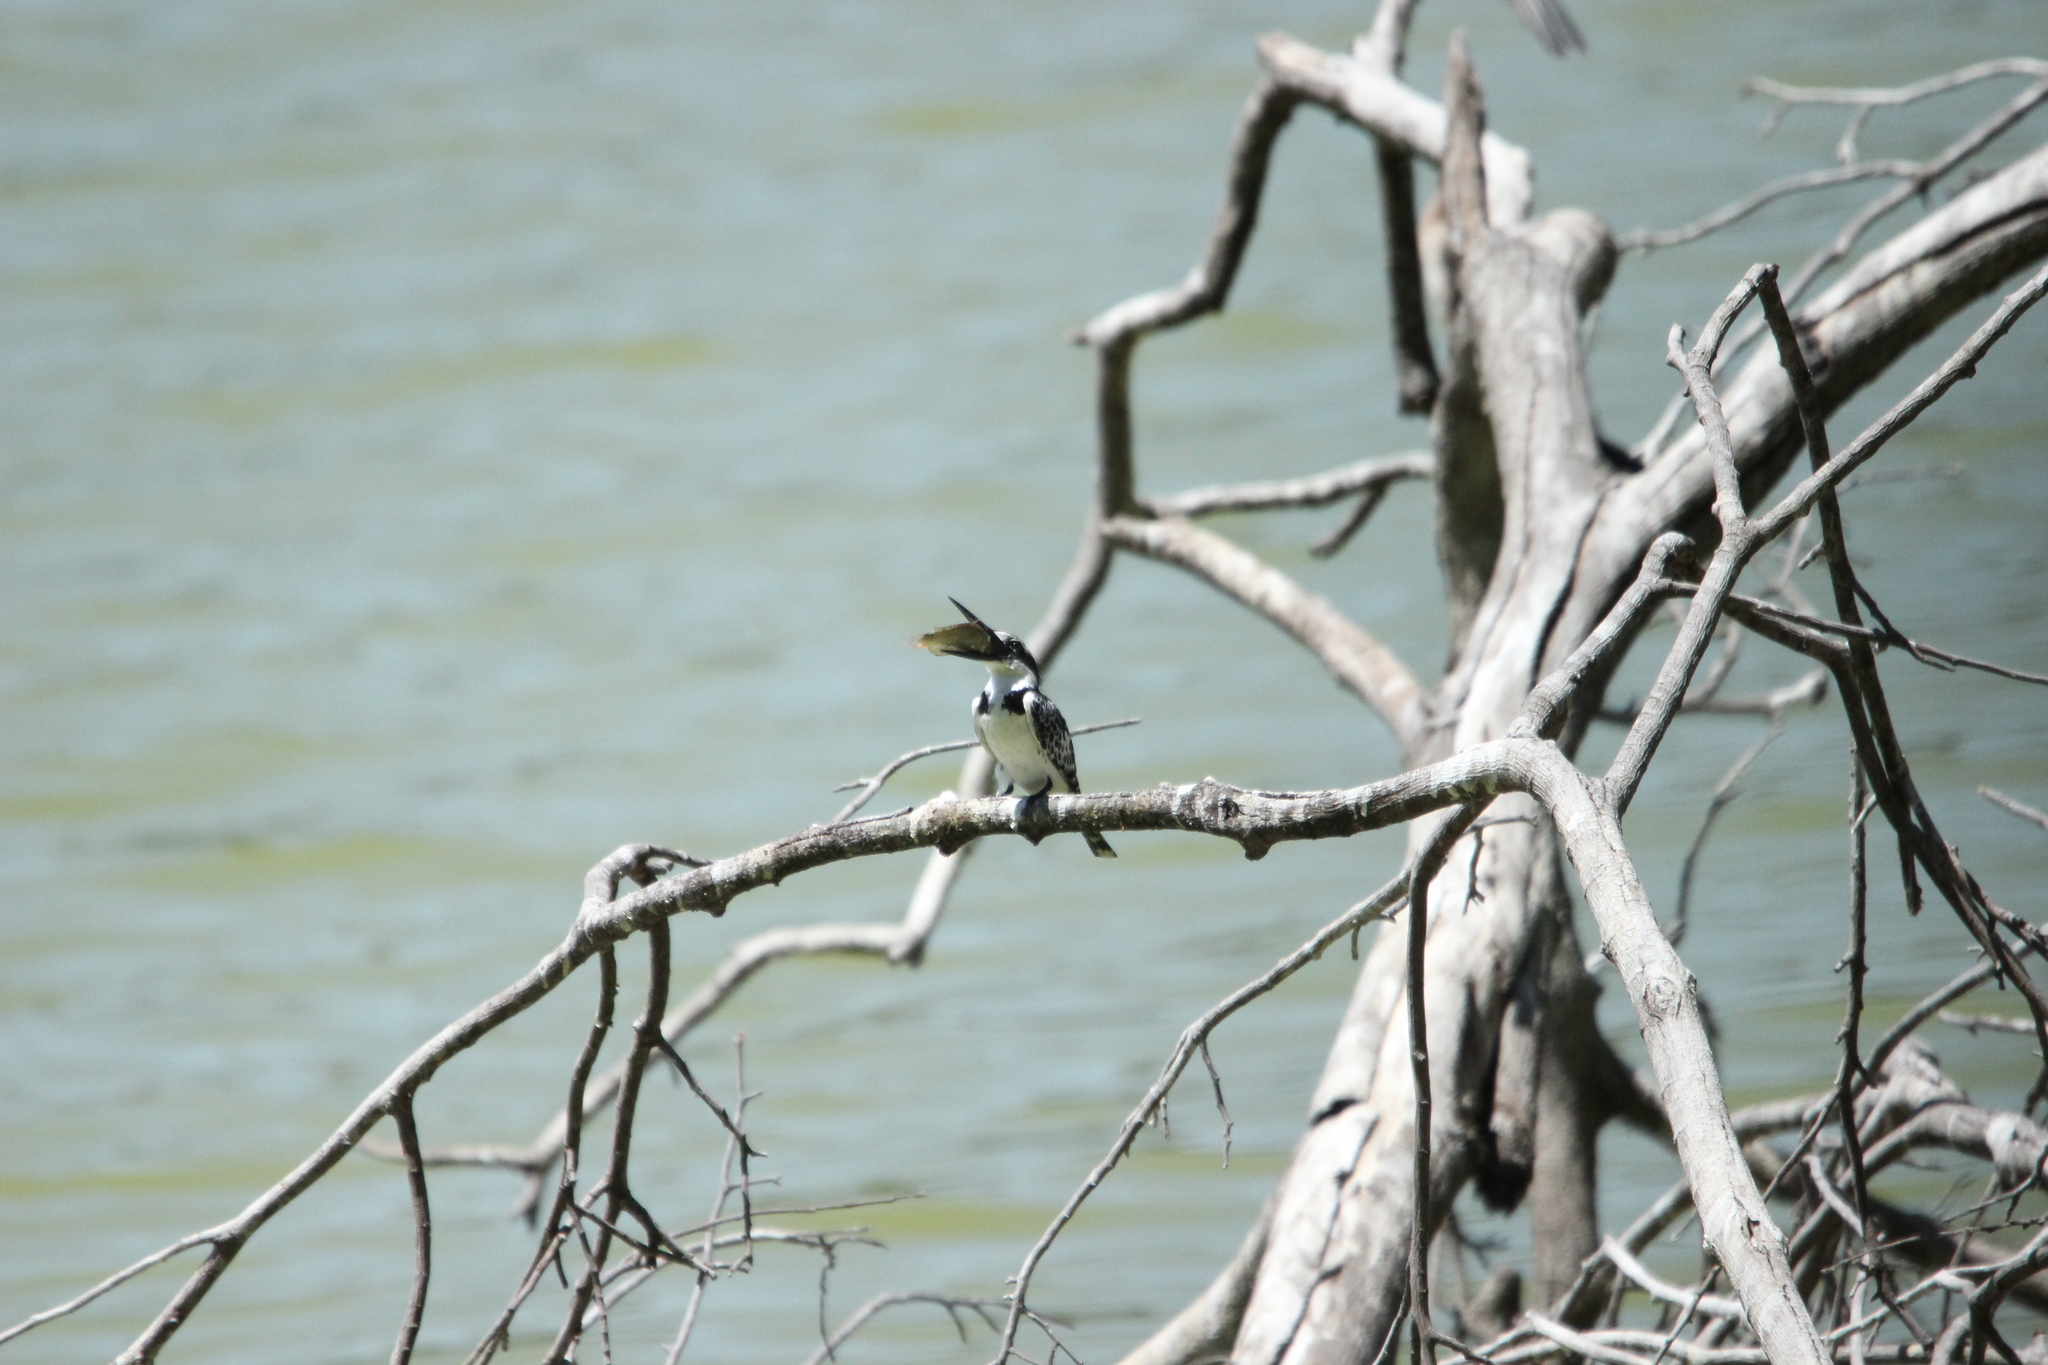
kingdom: Animalia
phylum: Chordata
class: Aves
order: Coraciiformes
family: Alcedinidae
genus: Ceryle
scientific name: Ceryle rudis
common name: Pied kingfisher
